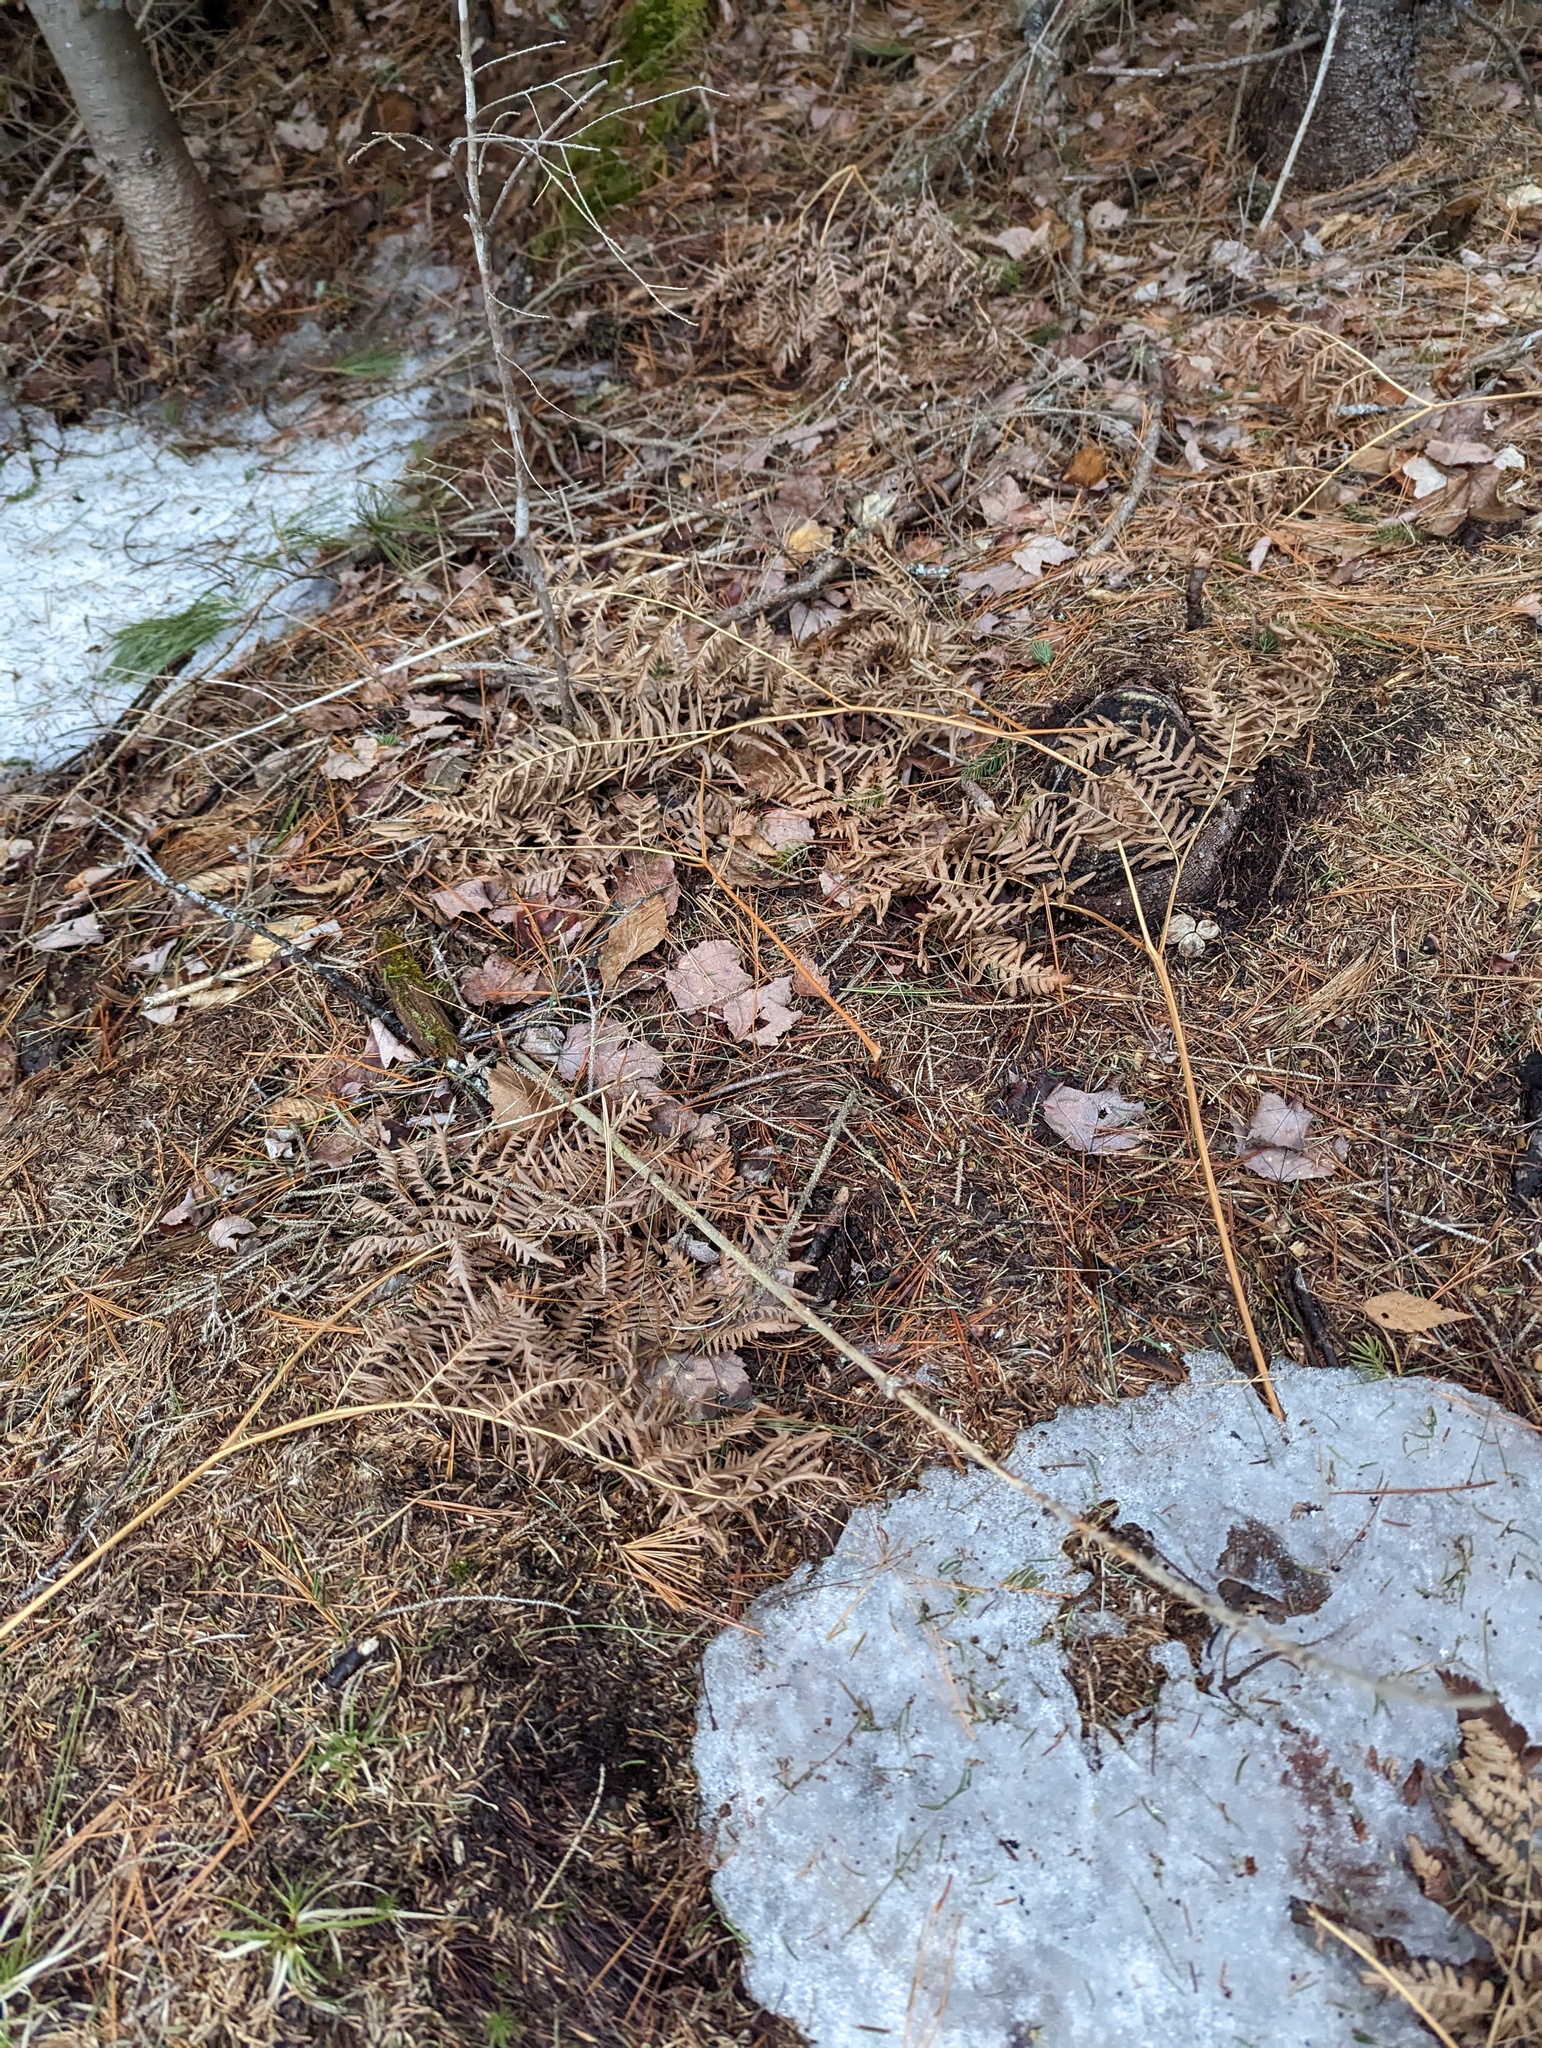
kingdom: Plantae
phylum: Tracheophyta
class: Polypodiopsida
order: Polypodiales
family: Dennstaedtiaceae
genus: Pteridium
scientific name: Pteridium aquilinum
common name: Bracken
